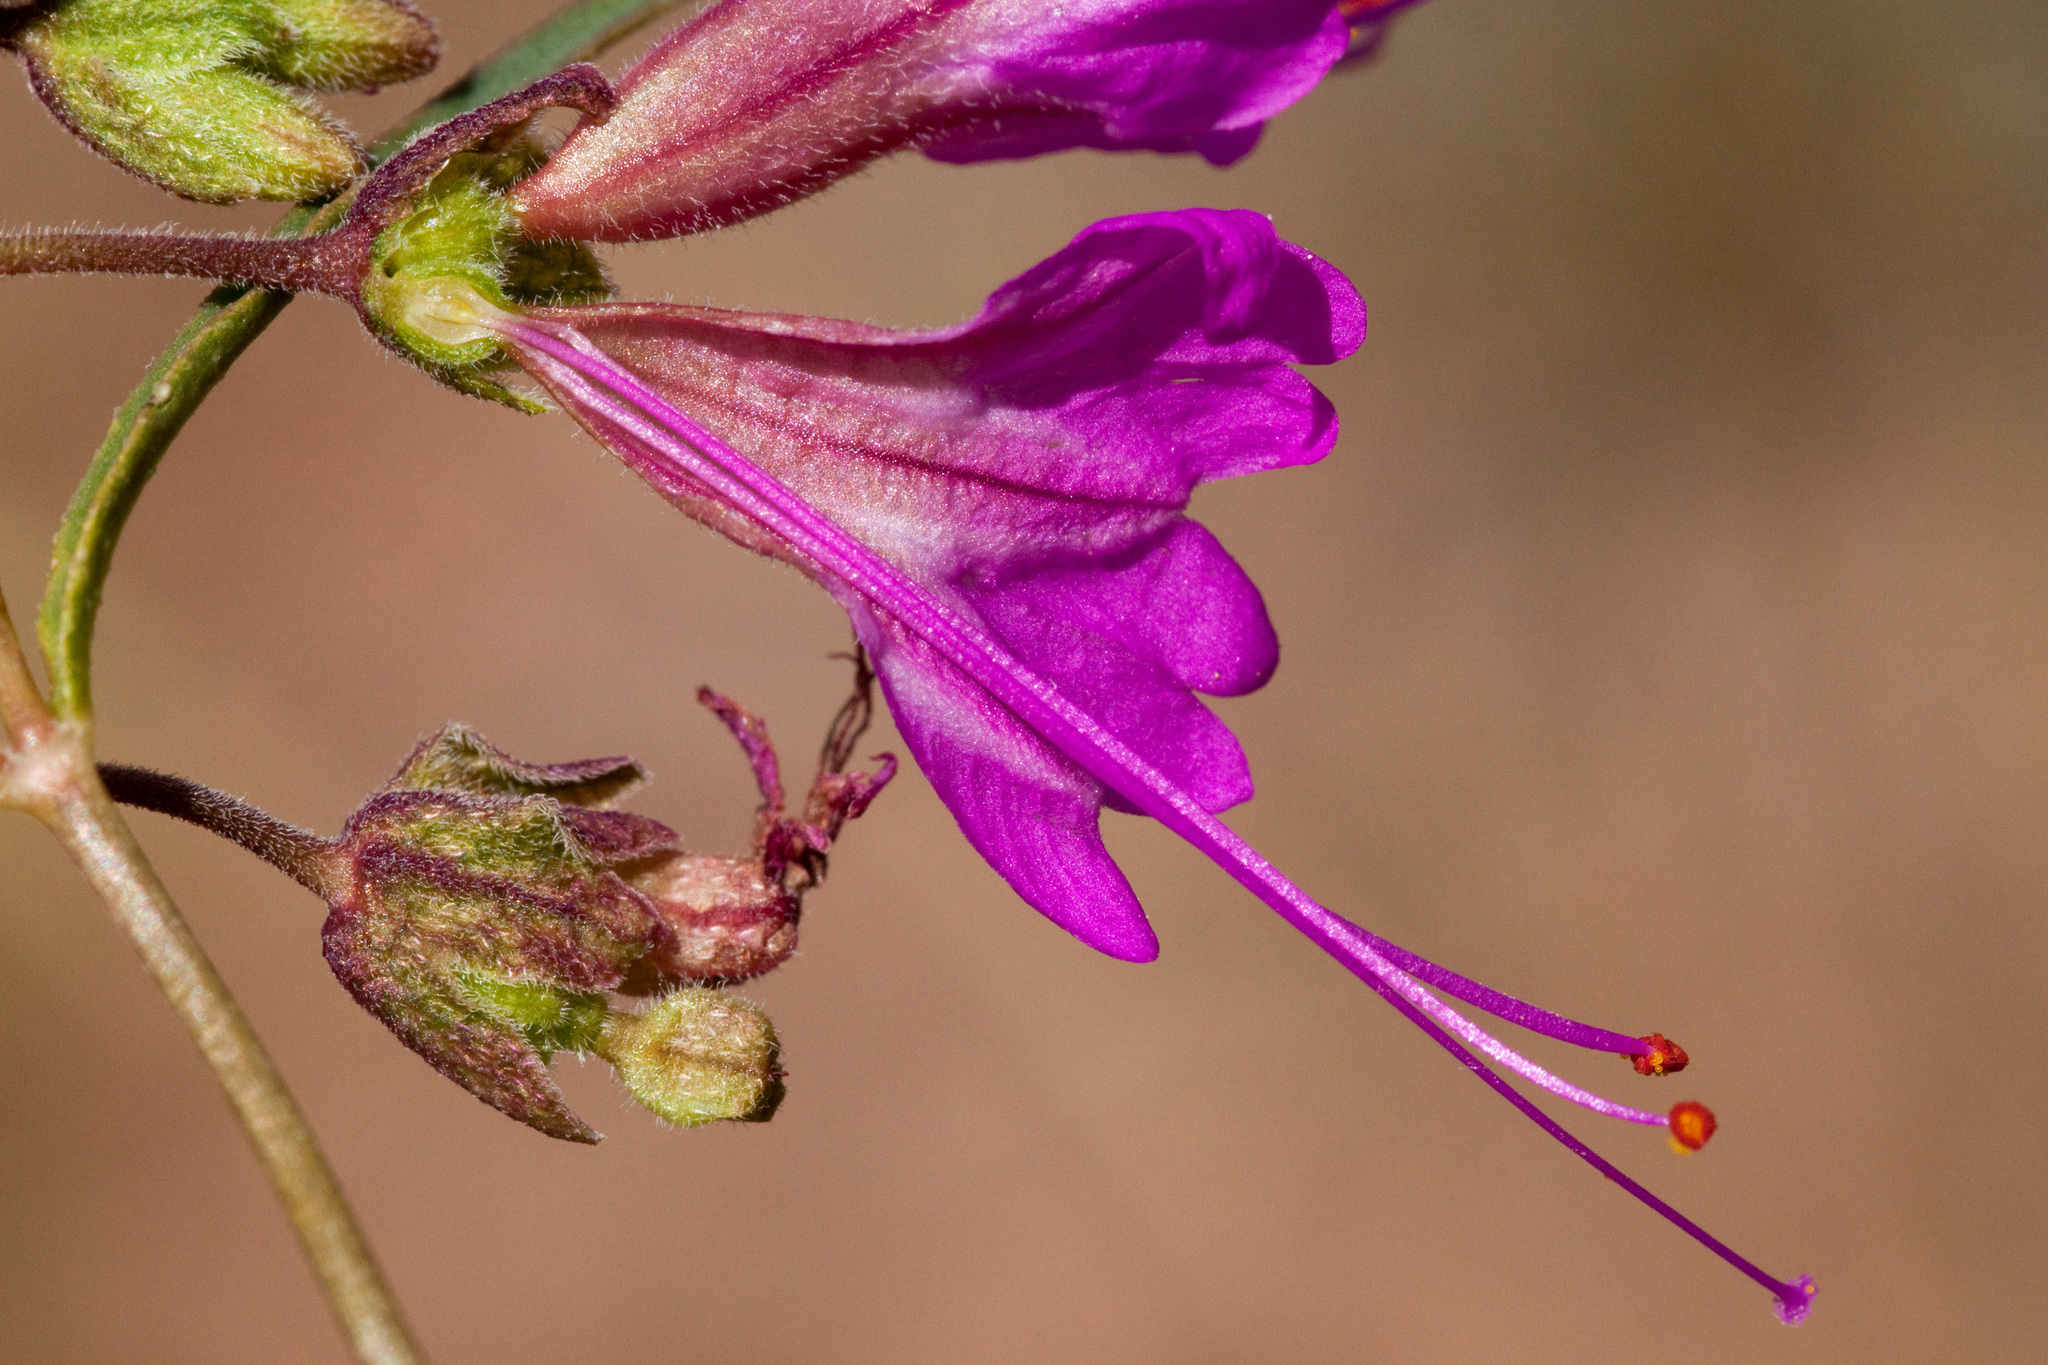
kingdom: Plantae
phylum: Tracheophyta
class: Magnoliopsida
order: Caryophyllales
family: Nyctaginaceae
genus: Mirabilis
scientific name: Mirabilis coccinea
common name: Scarlet four-o'clock
